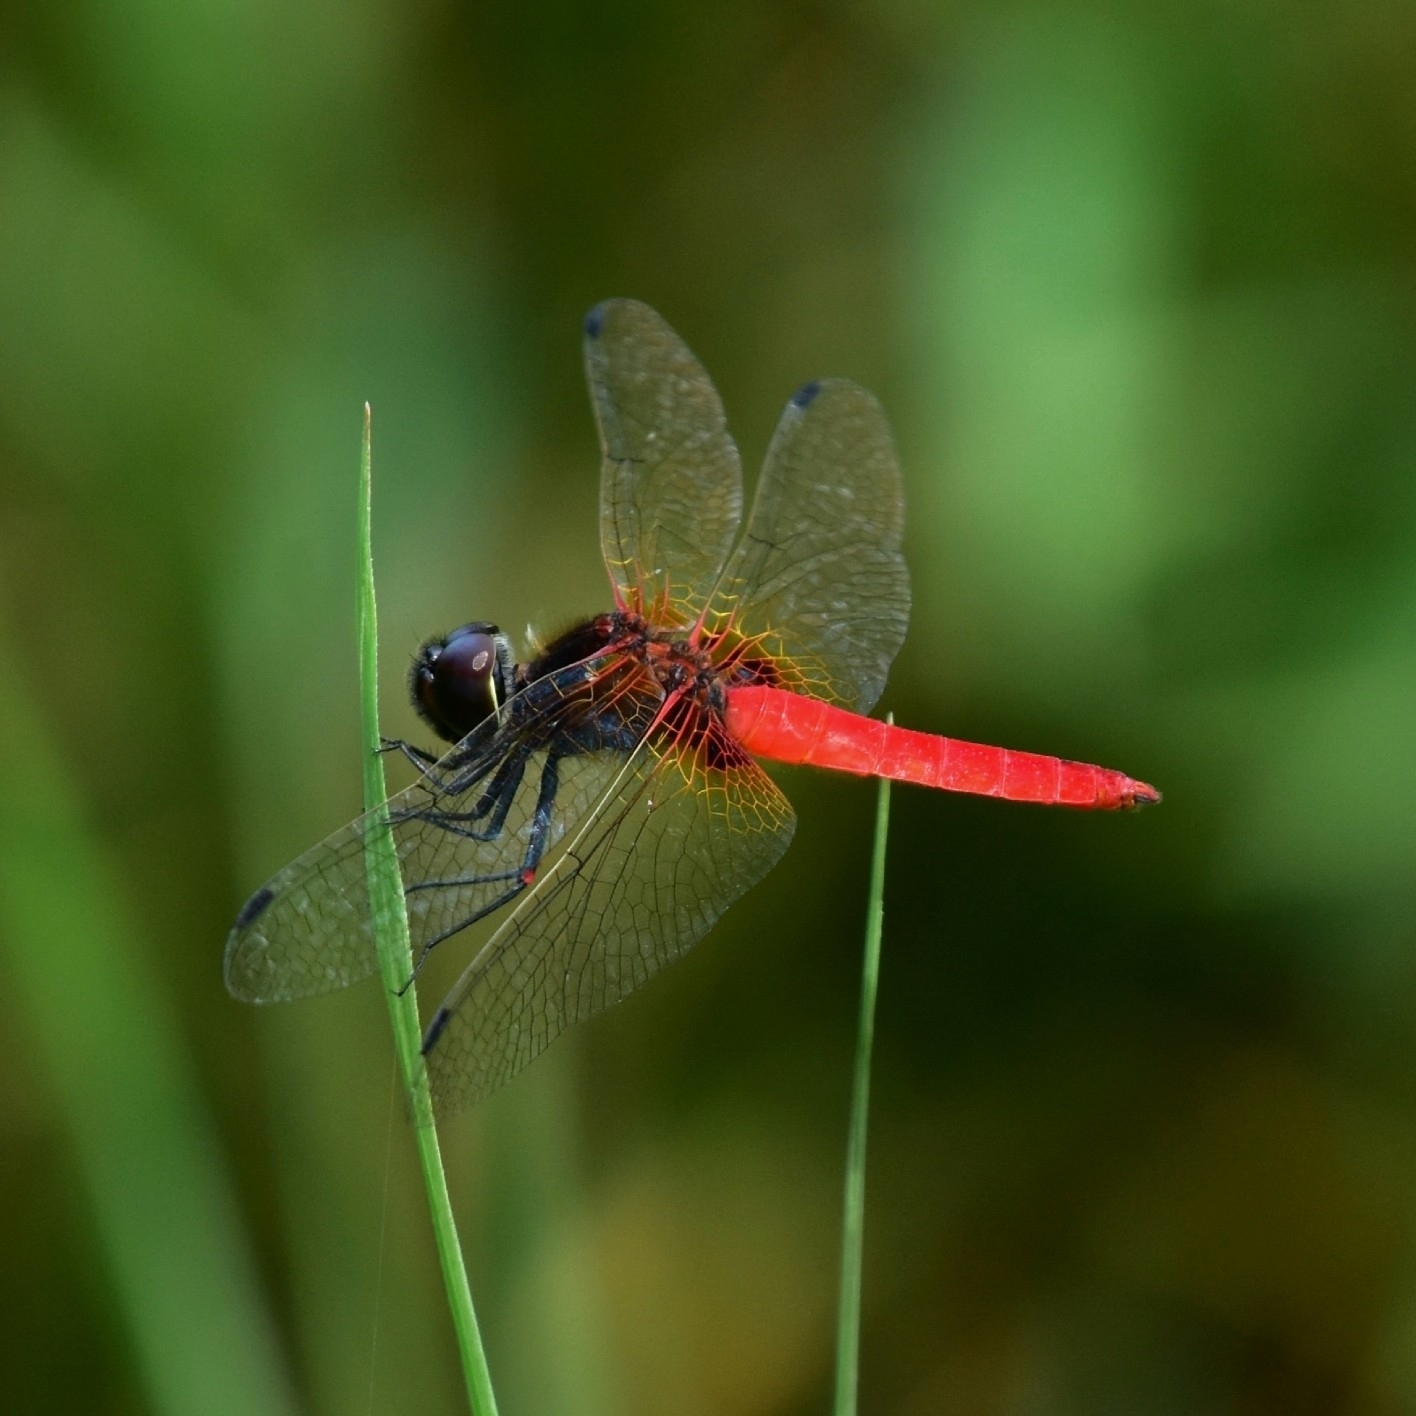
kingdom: Animalia
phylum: Arthropoda
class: Insecta
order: Odonata
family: Libellulidae
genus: Aethriamanta
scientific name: Aethriamanta brevipennis
